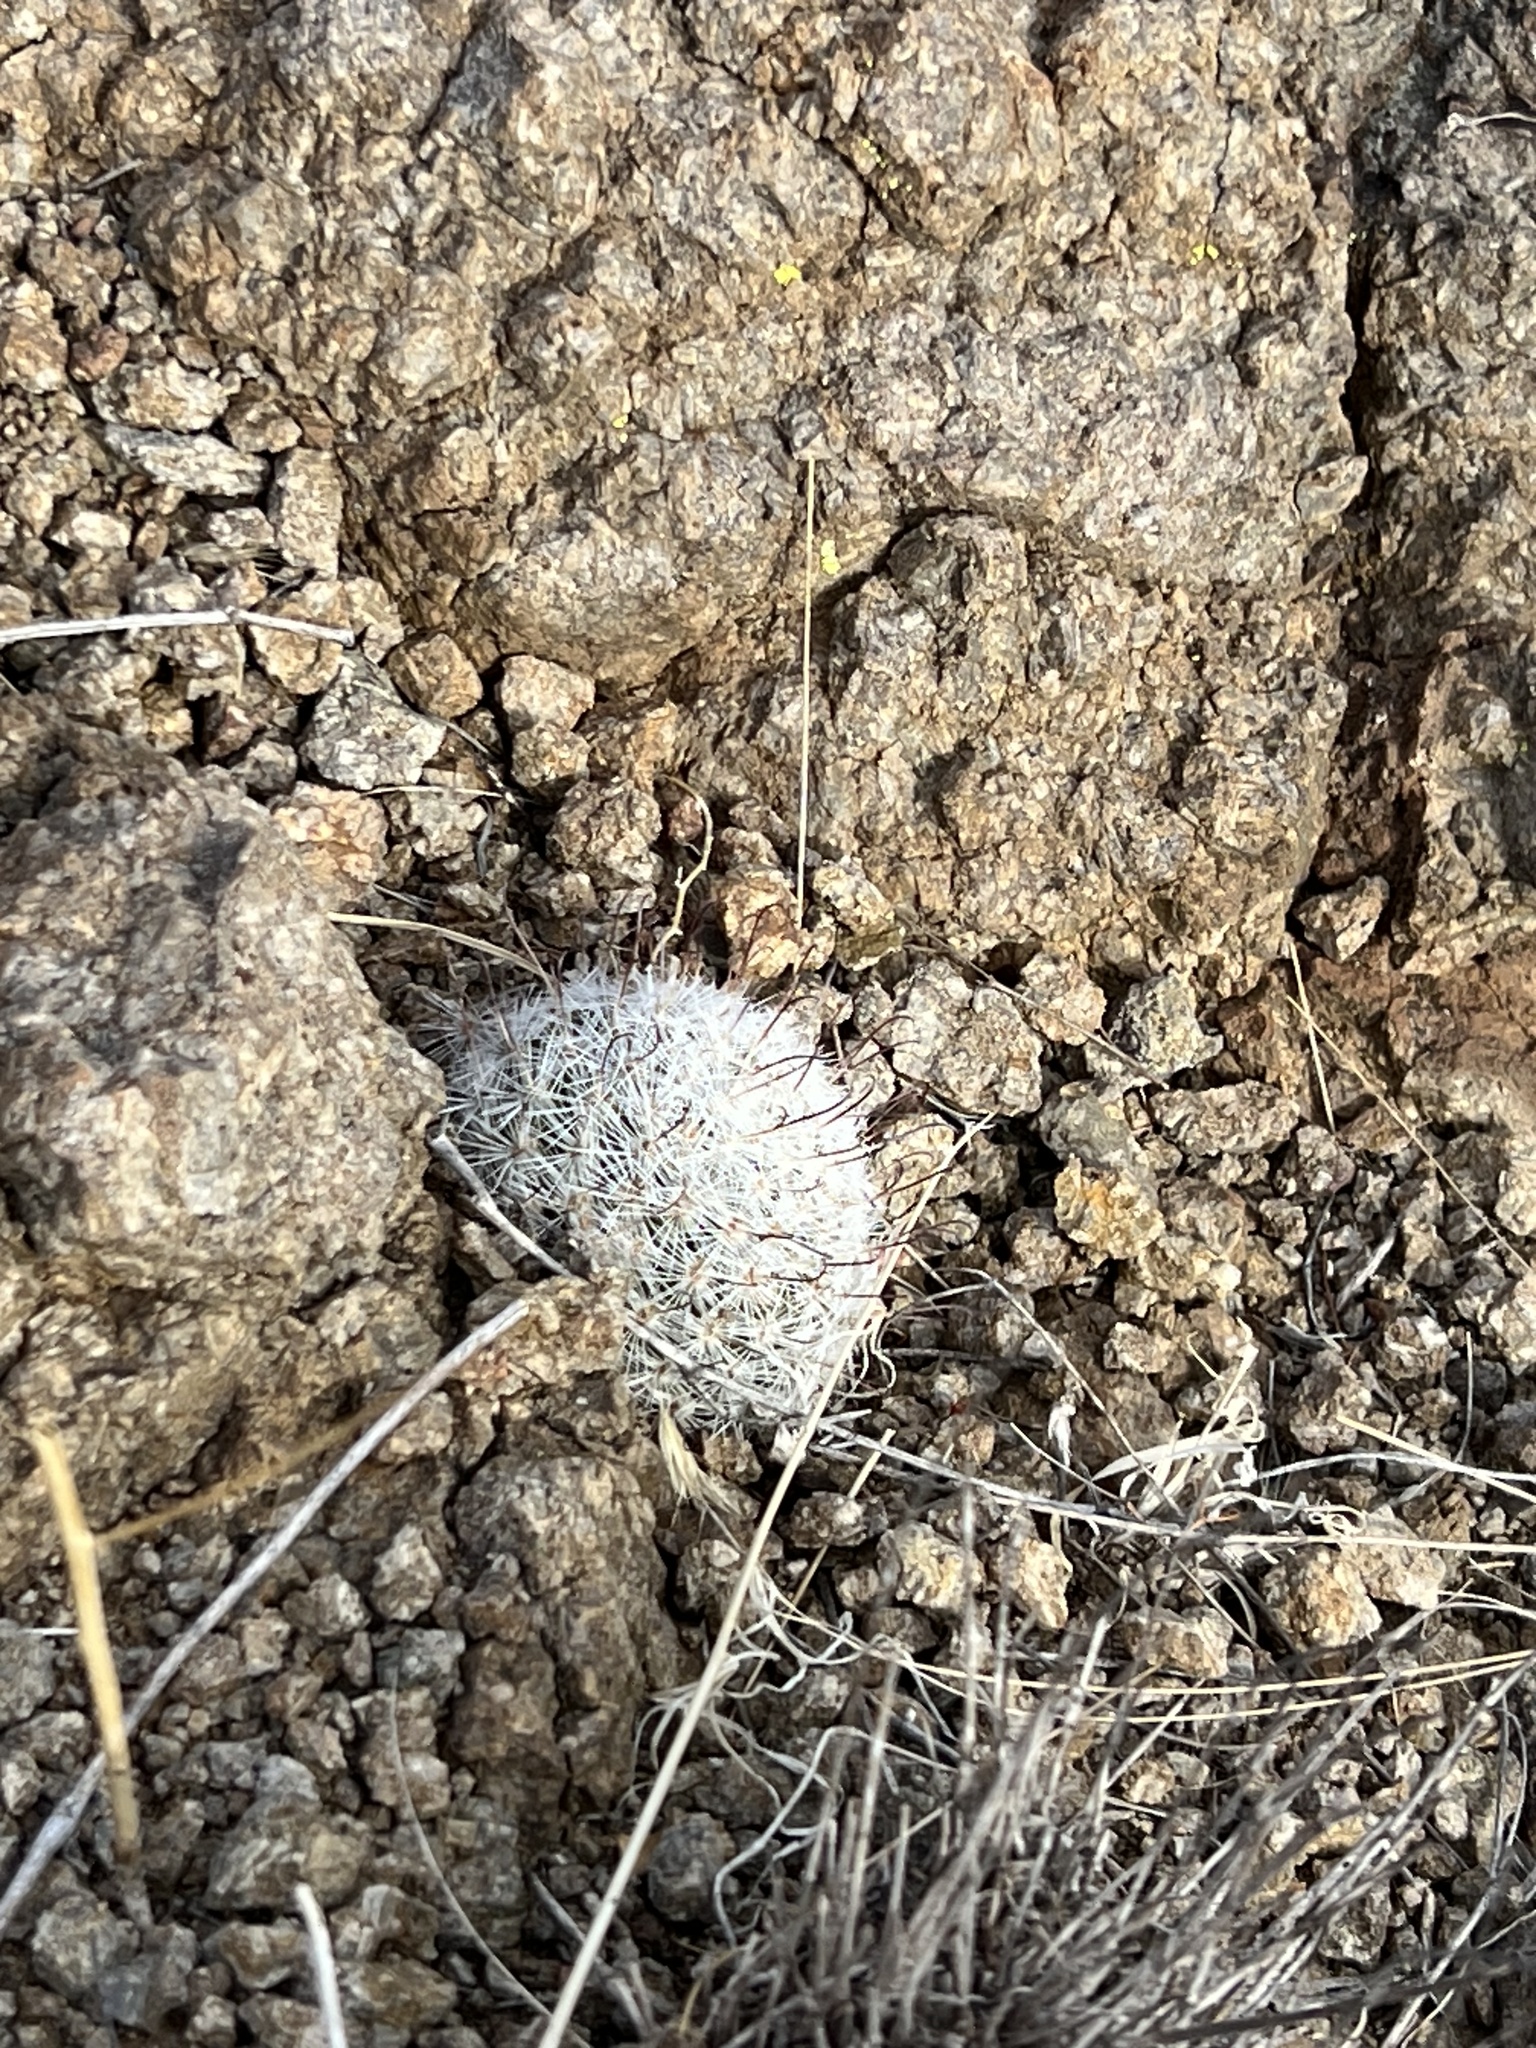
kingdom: Plantae
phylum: Tracheophyta
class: Magnoliopsida
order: Caryophyllales
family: Cactaceae
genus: Cochemiea
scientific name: Cochemiea grahamii
